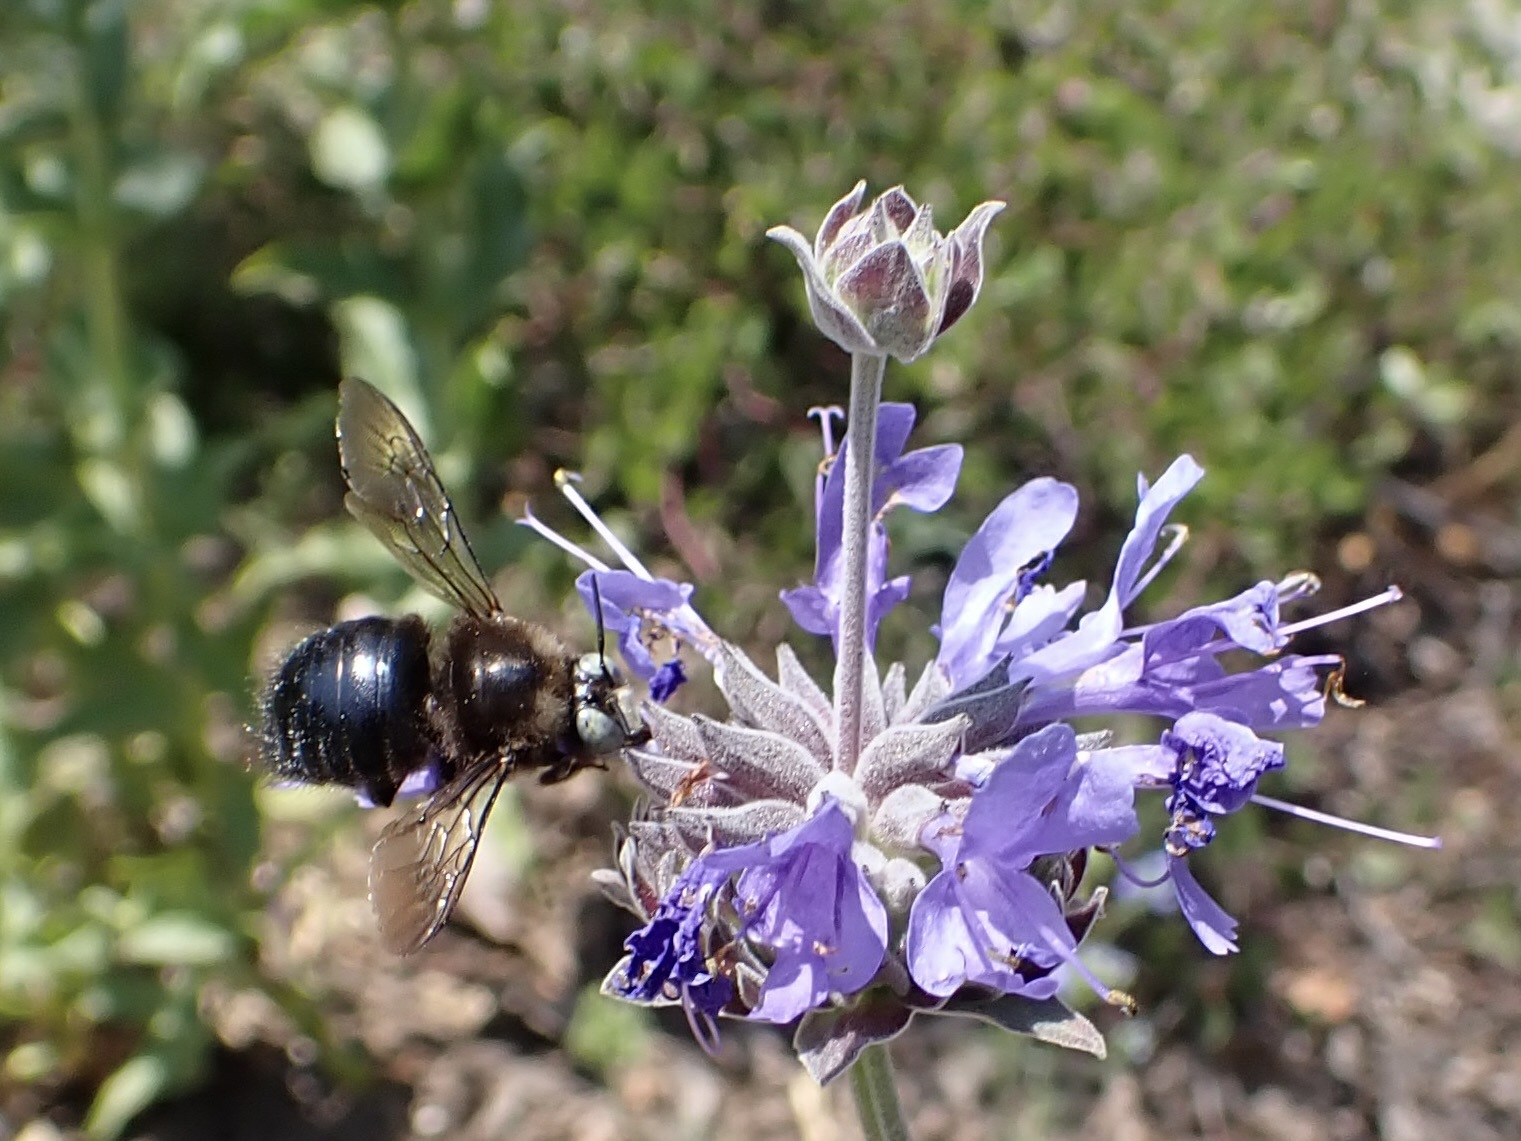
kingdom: Animalia
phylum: Arthropoda
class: Insecta
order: Hymenoptera
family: Apidae
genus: Xylocopa
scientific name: Xylocopa tabaniformis
